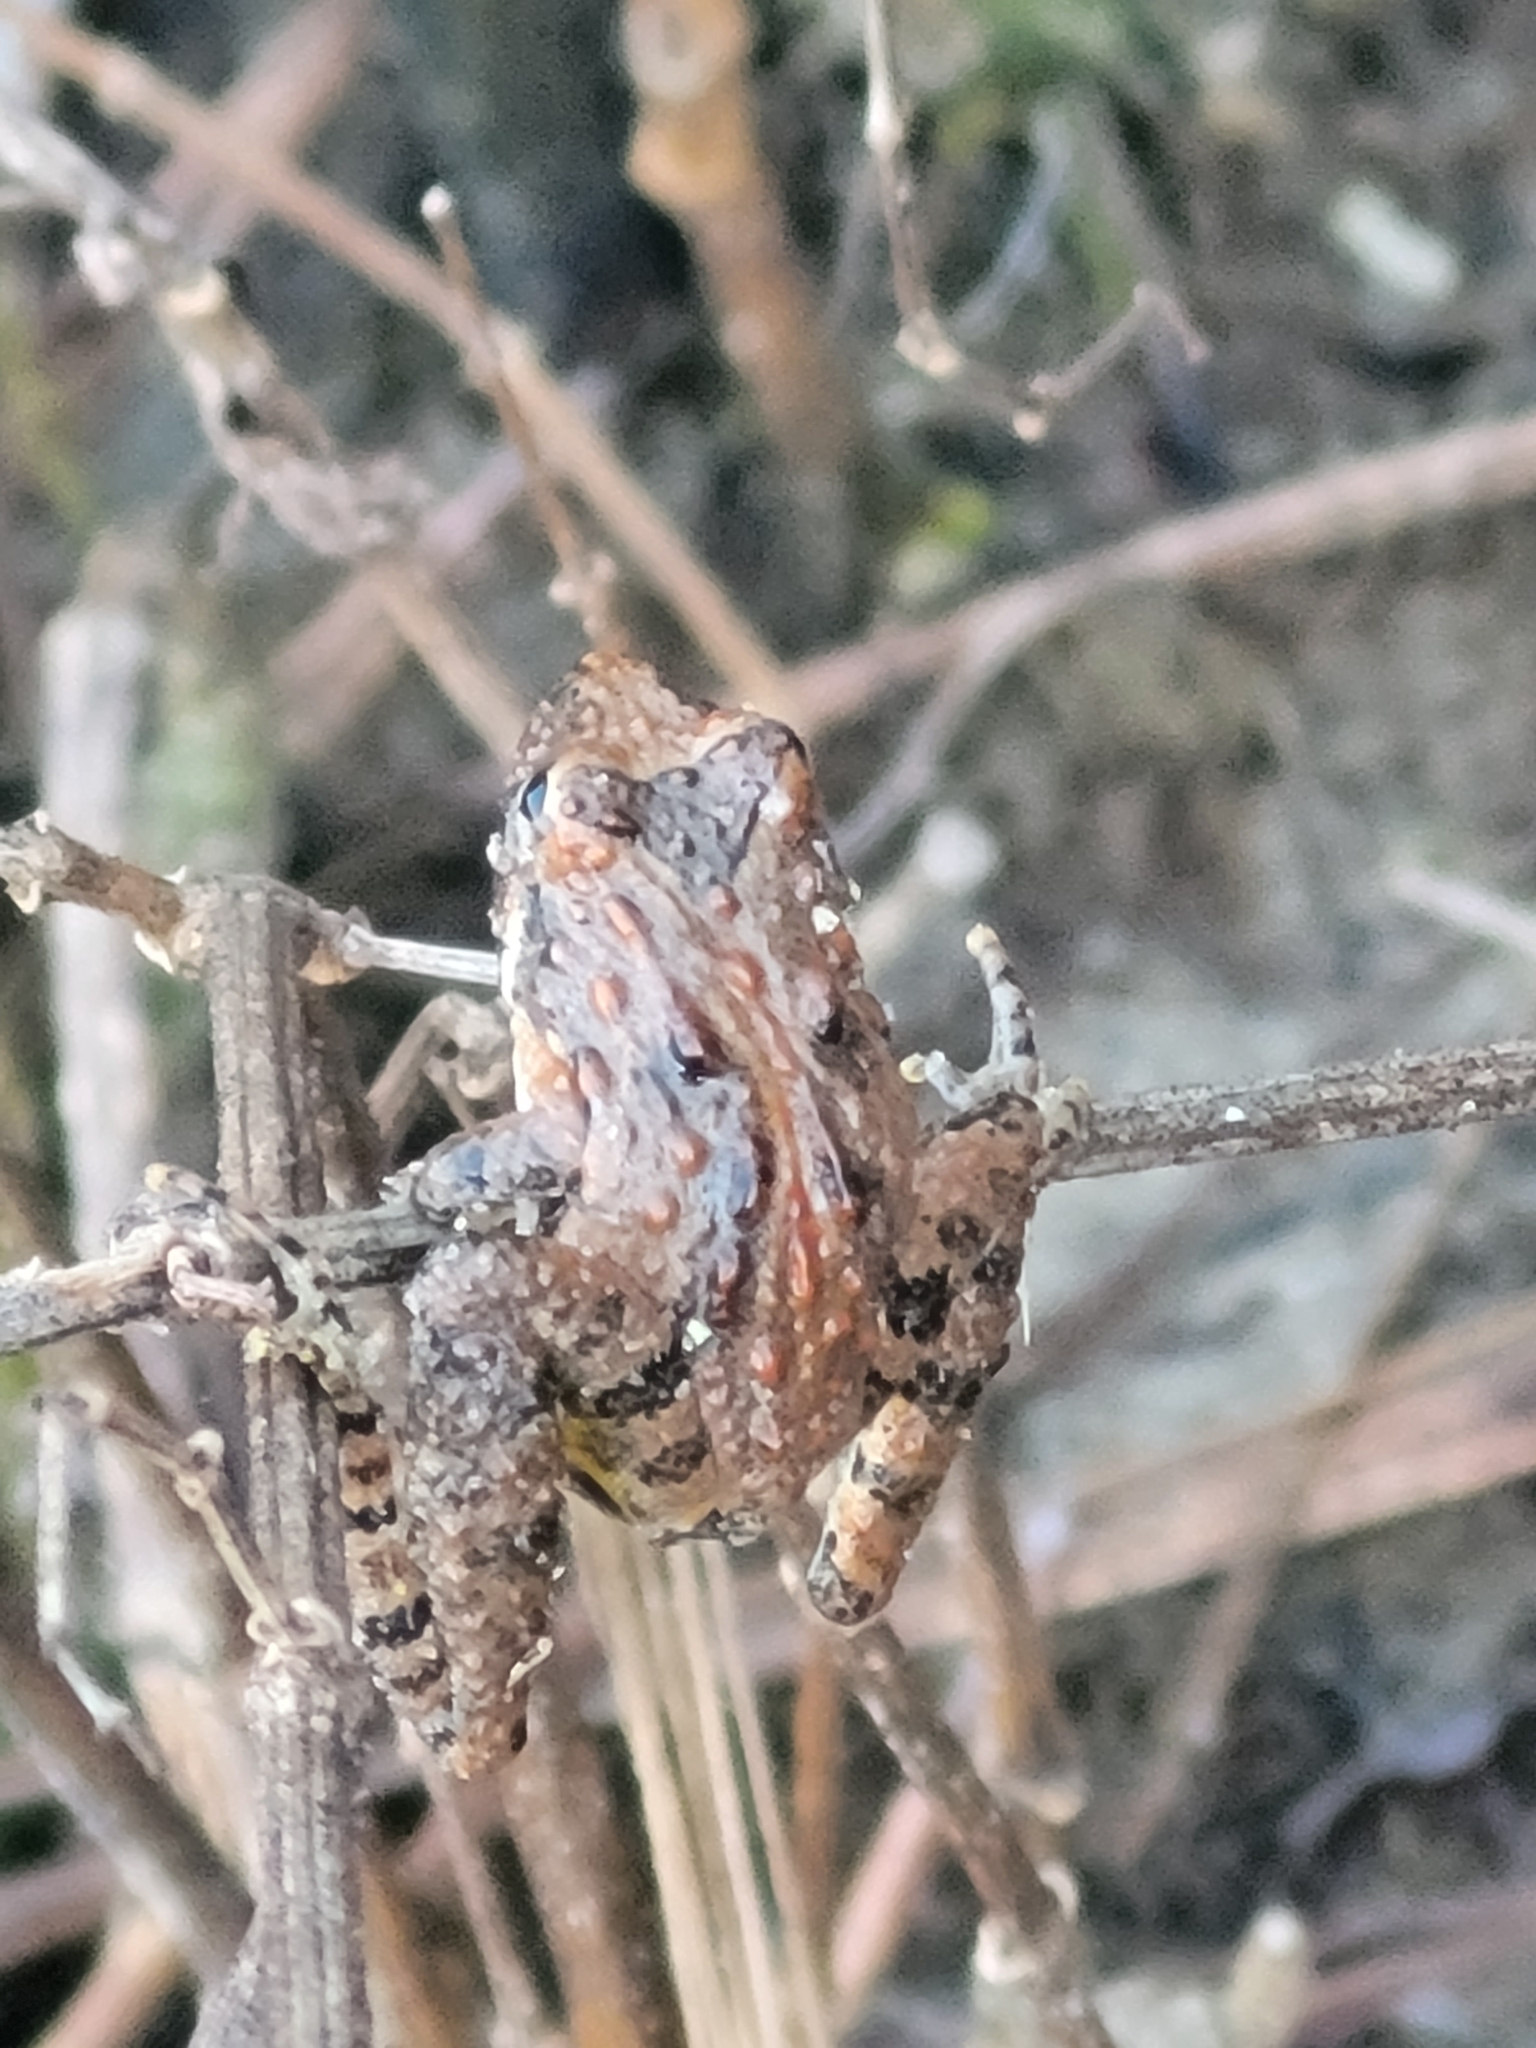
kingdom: Animalia
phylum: Chordata
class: Amphibia
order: Anura
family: Hylidae
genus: Acris
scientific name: Acris crepitans
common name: Northern cricket frog
